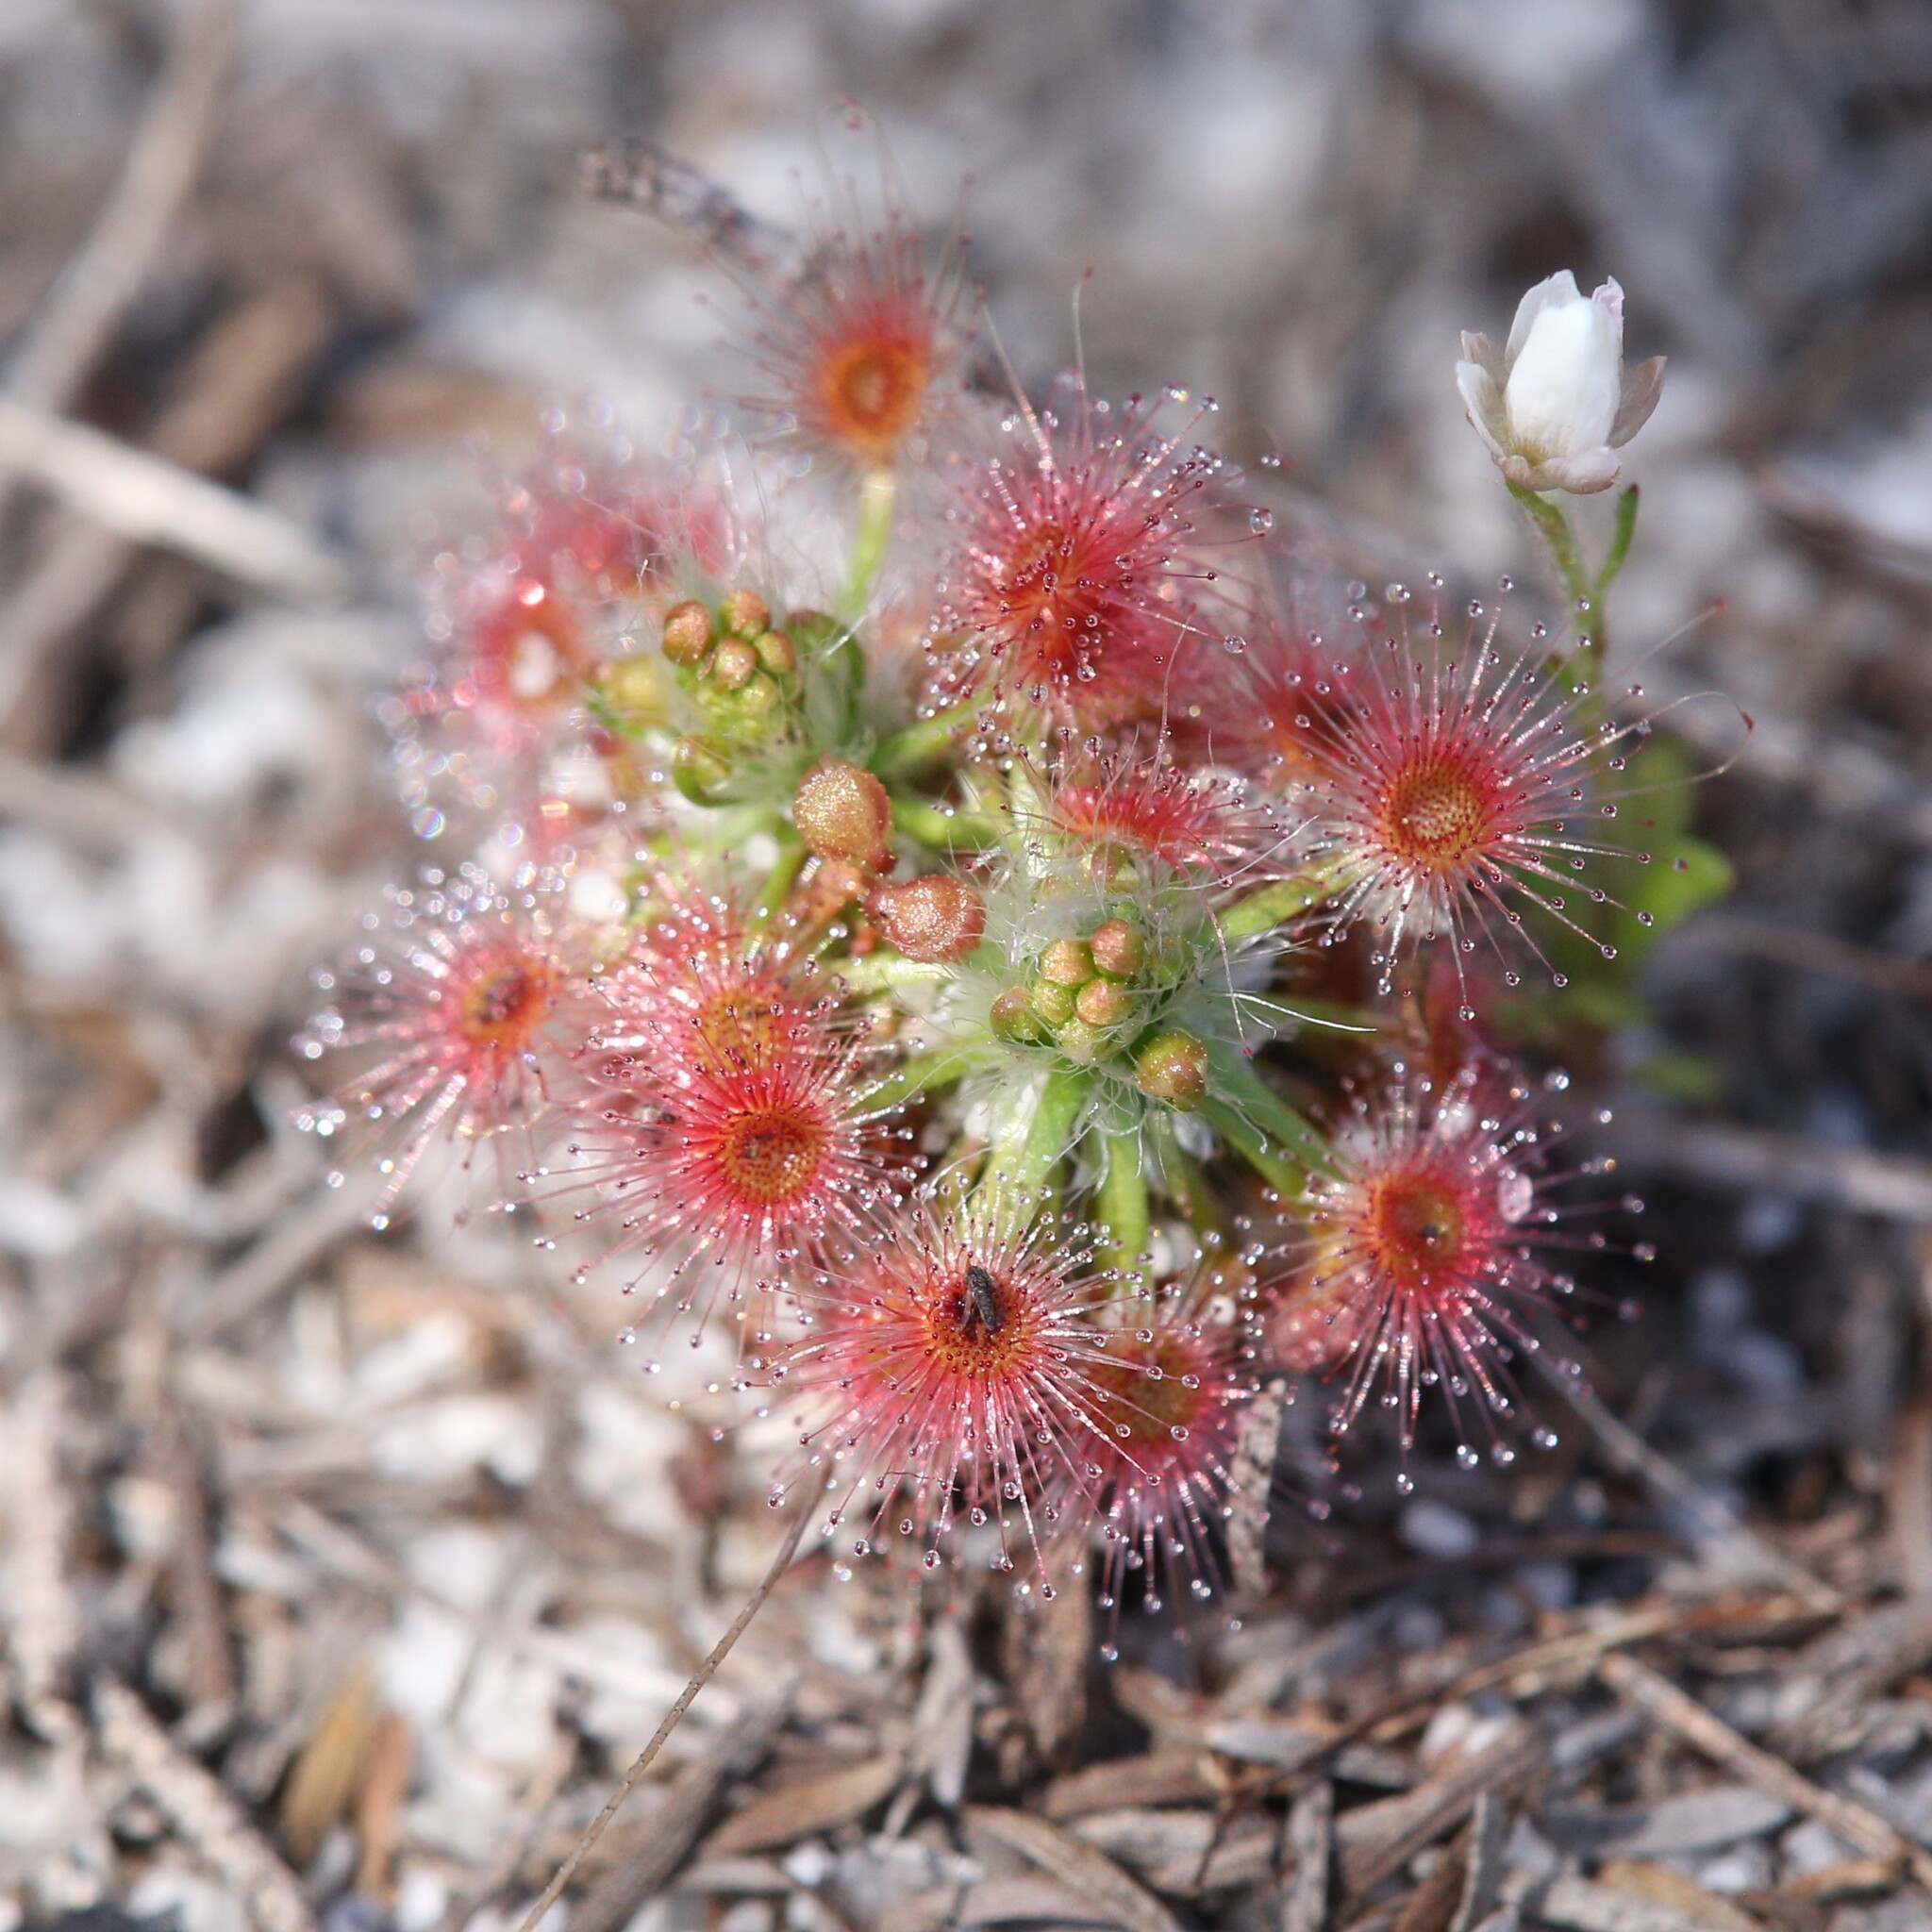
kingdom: Plantae
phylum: Tracheophyta
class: Magnoliopsida
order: Caryophyllales
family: Droseraceae
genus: Drosera
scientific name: Drosera paleacea
